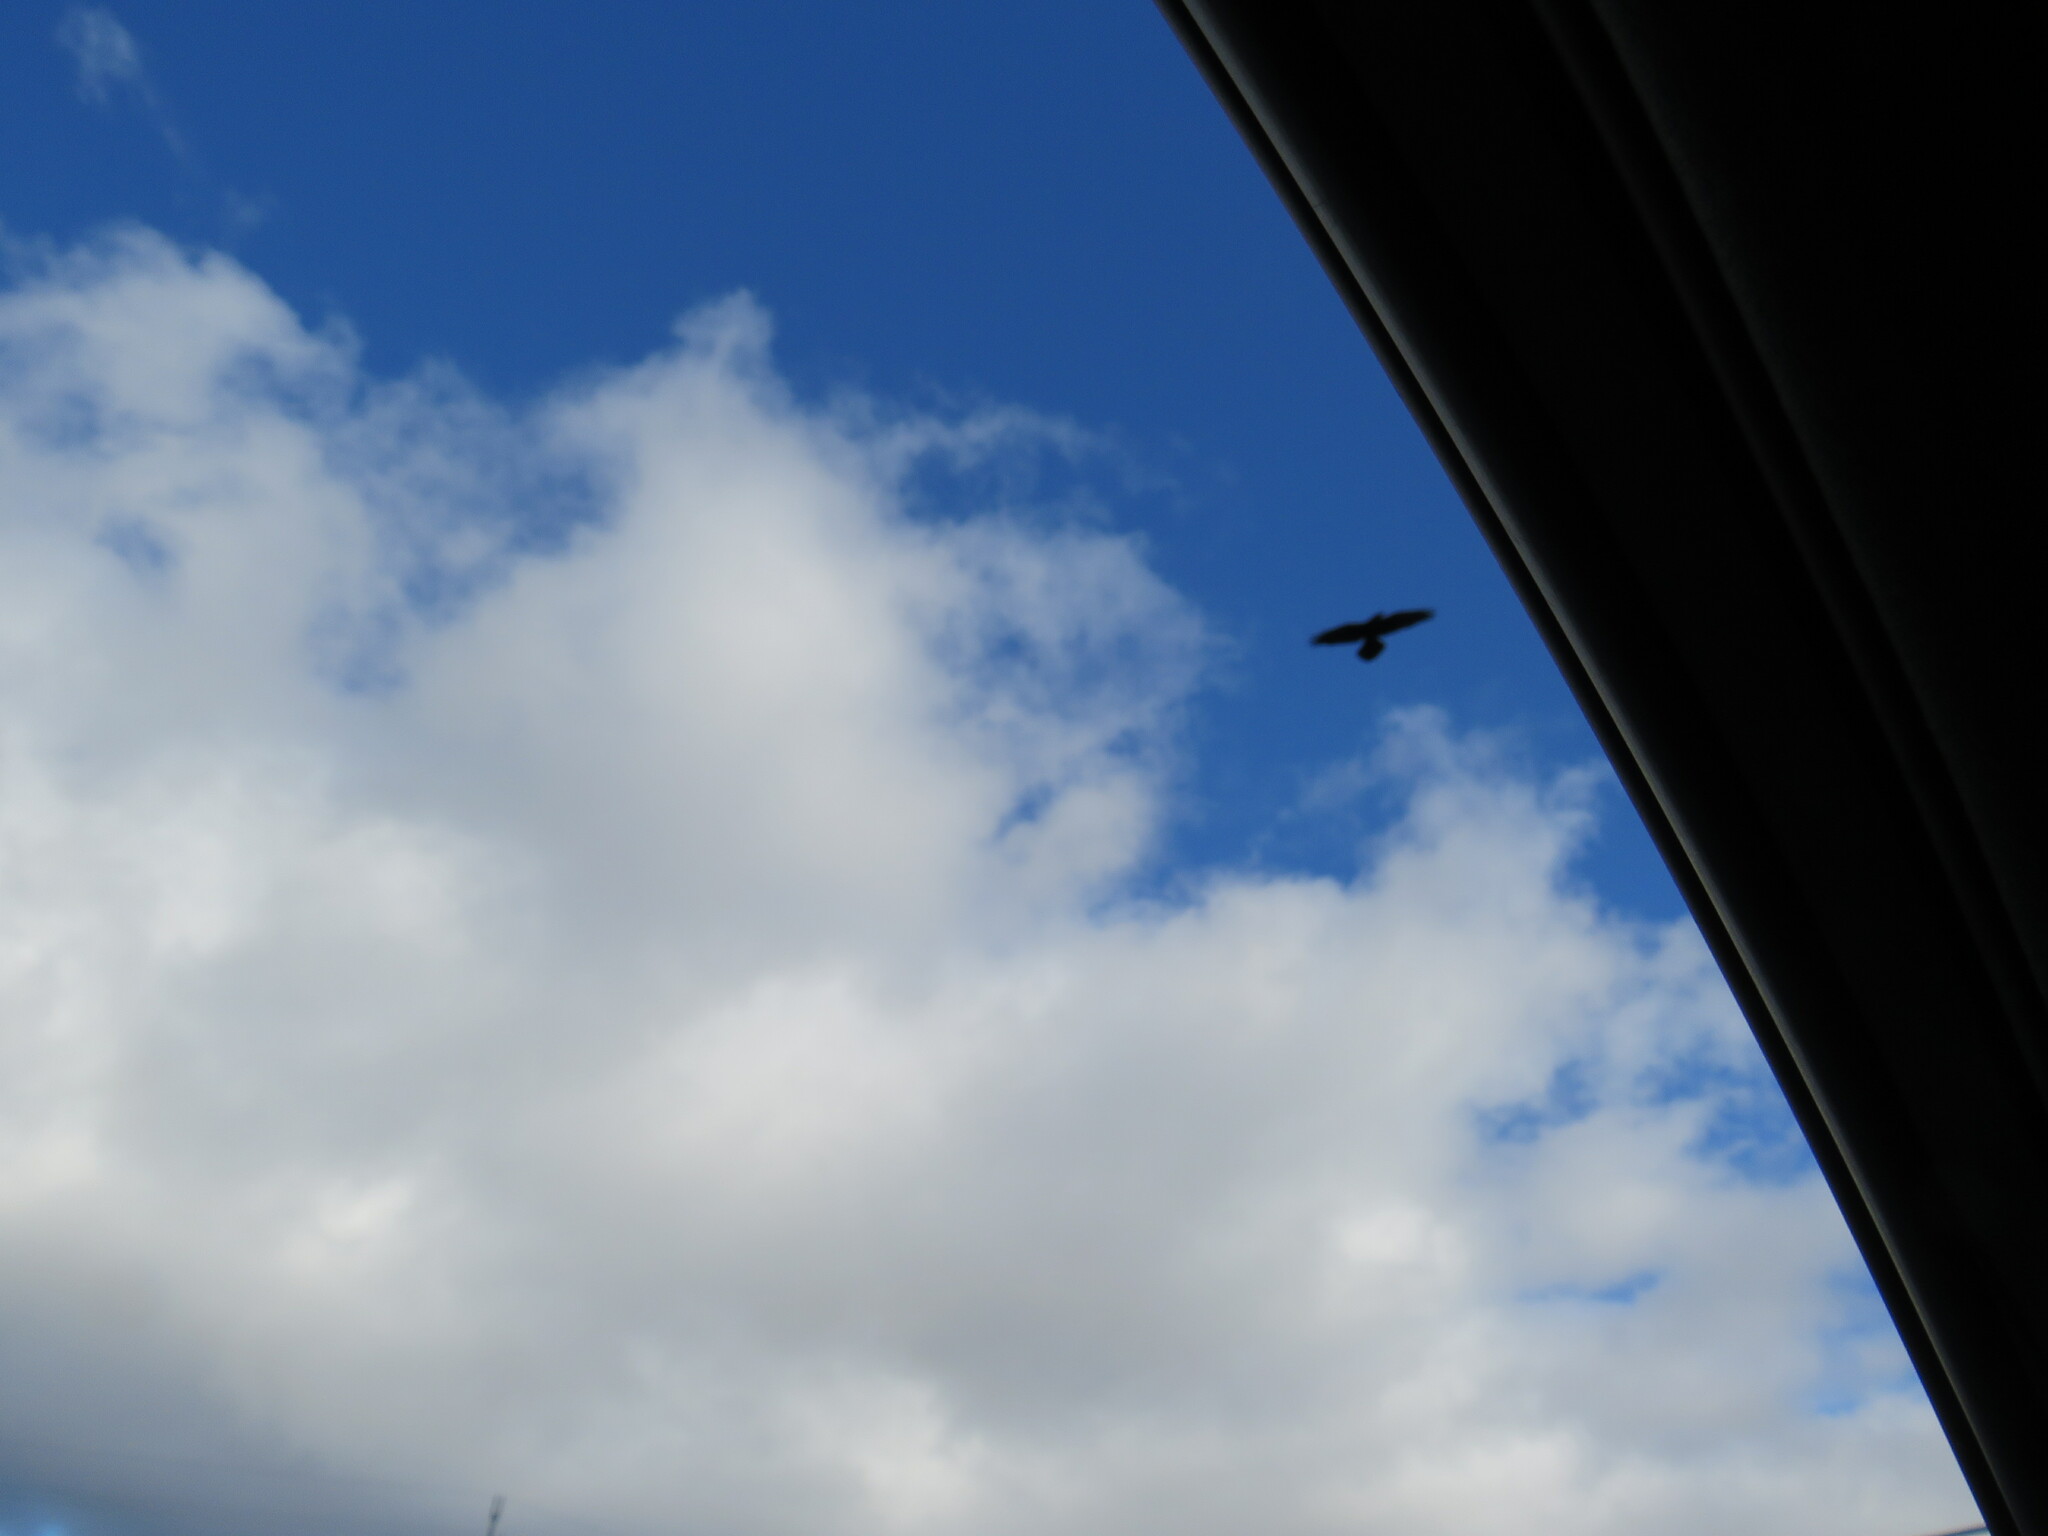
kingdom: Animalia
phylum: Chordata
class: Aves
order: Passeriformes
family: Corvidae
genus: Corvus
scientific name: Corvus corax
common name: Common raven
